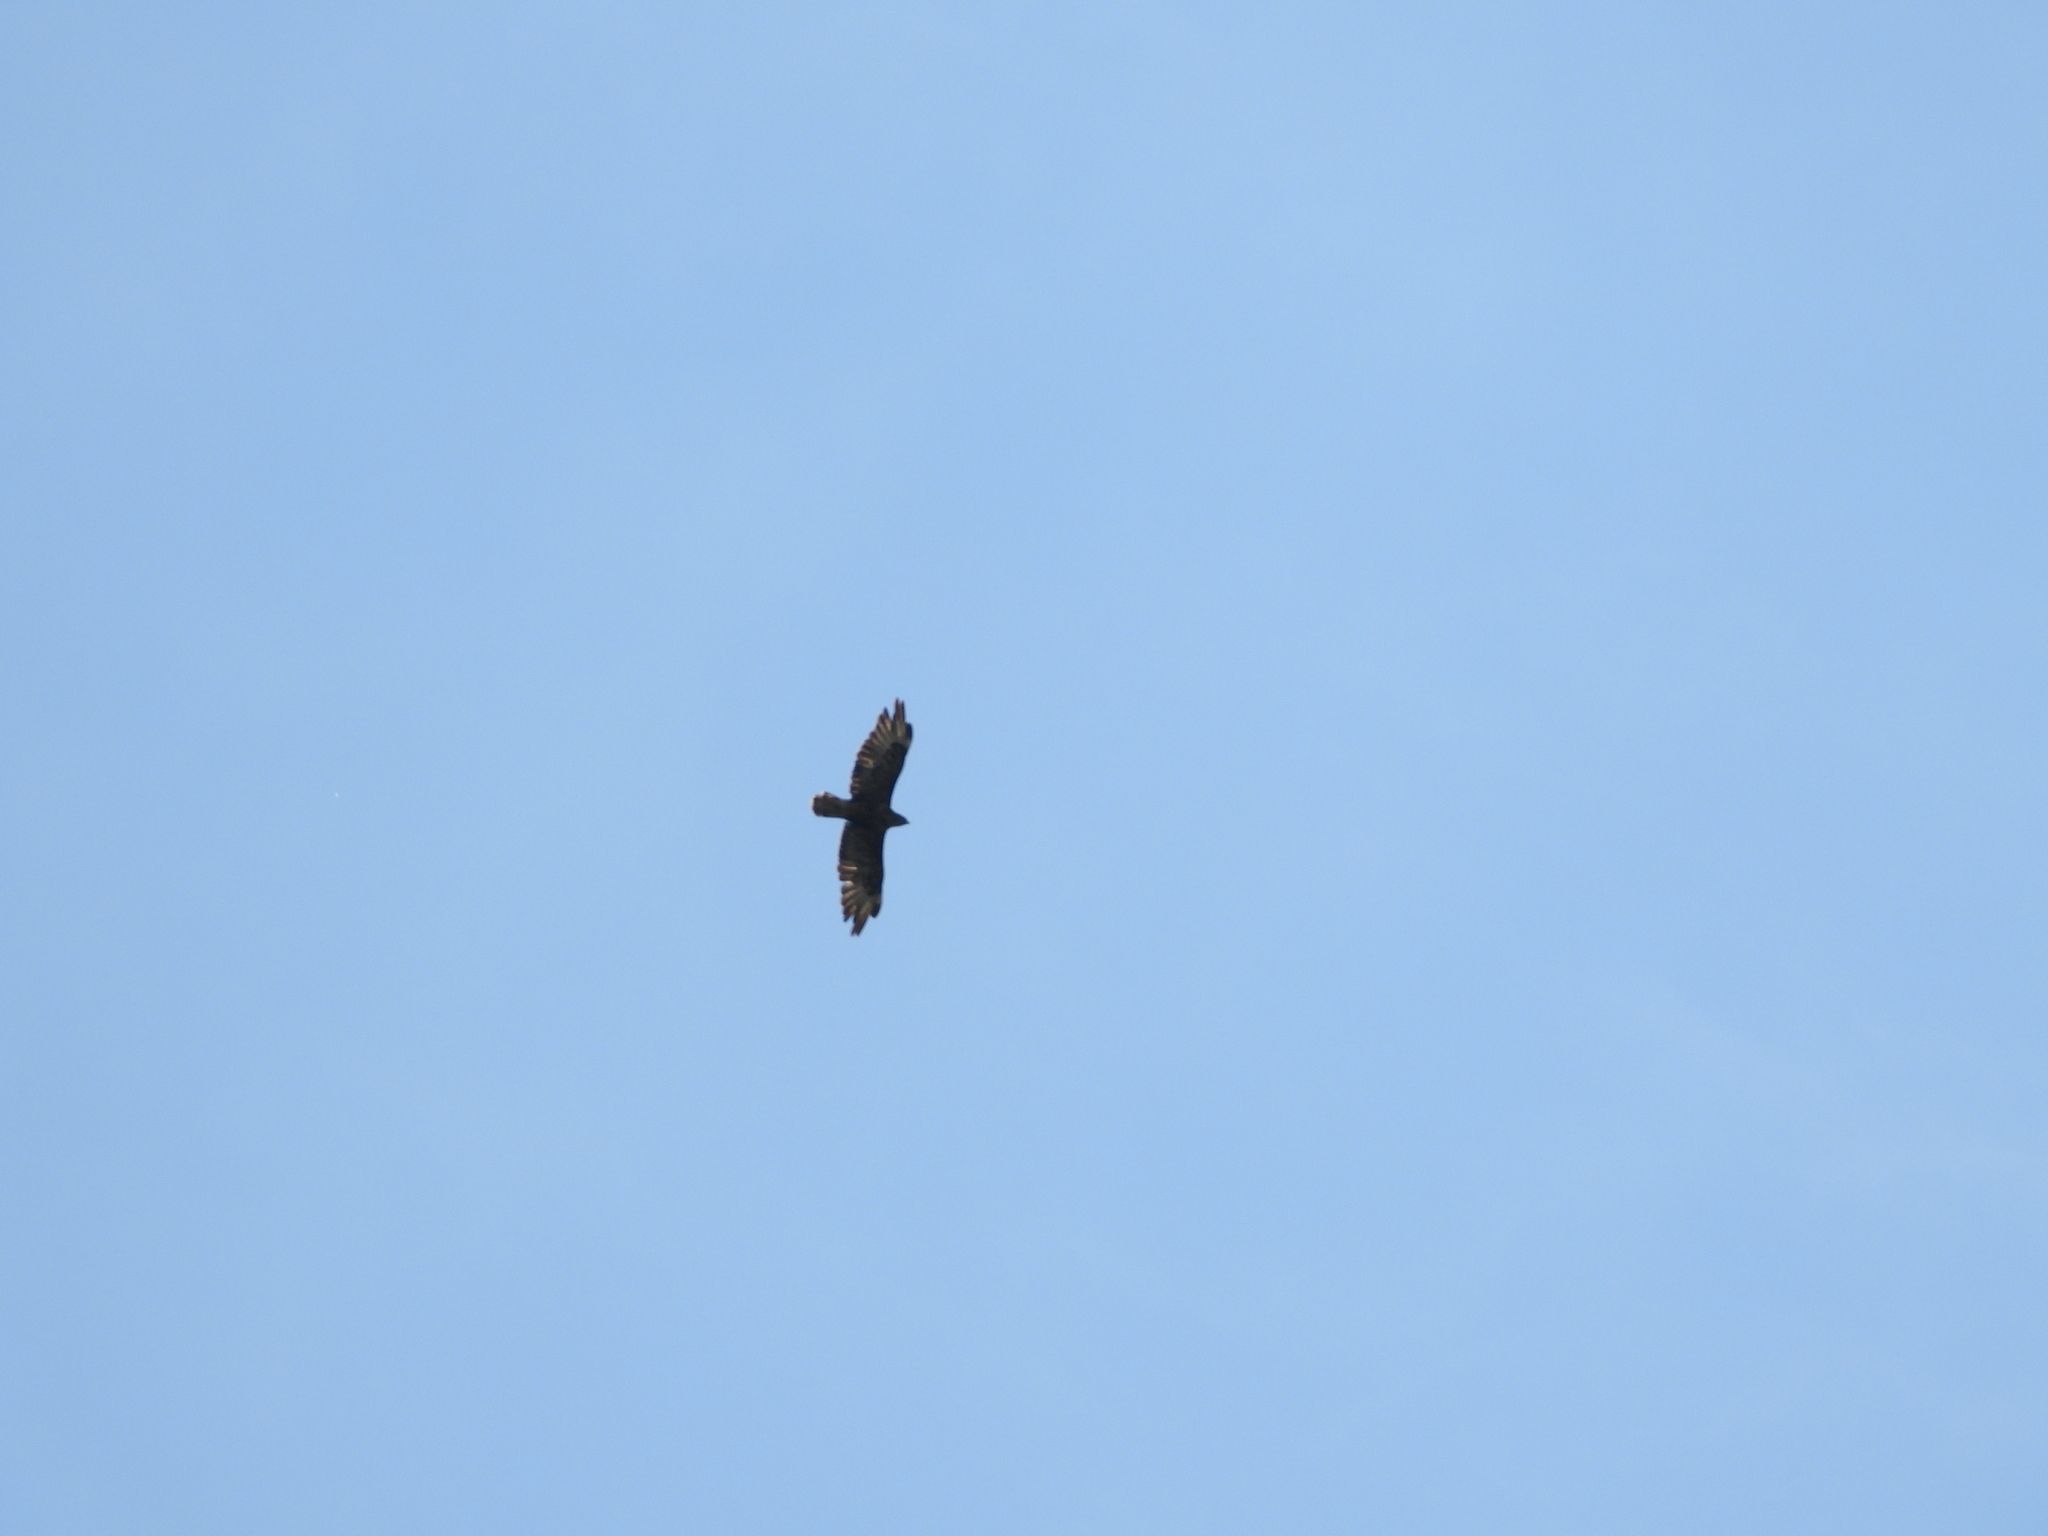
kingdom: Animalia
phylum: Chordata
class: Aves
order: Accipitriformes
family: Accipitridae
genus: Buteo
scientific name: Buteo buteo
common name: Common buzzard
